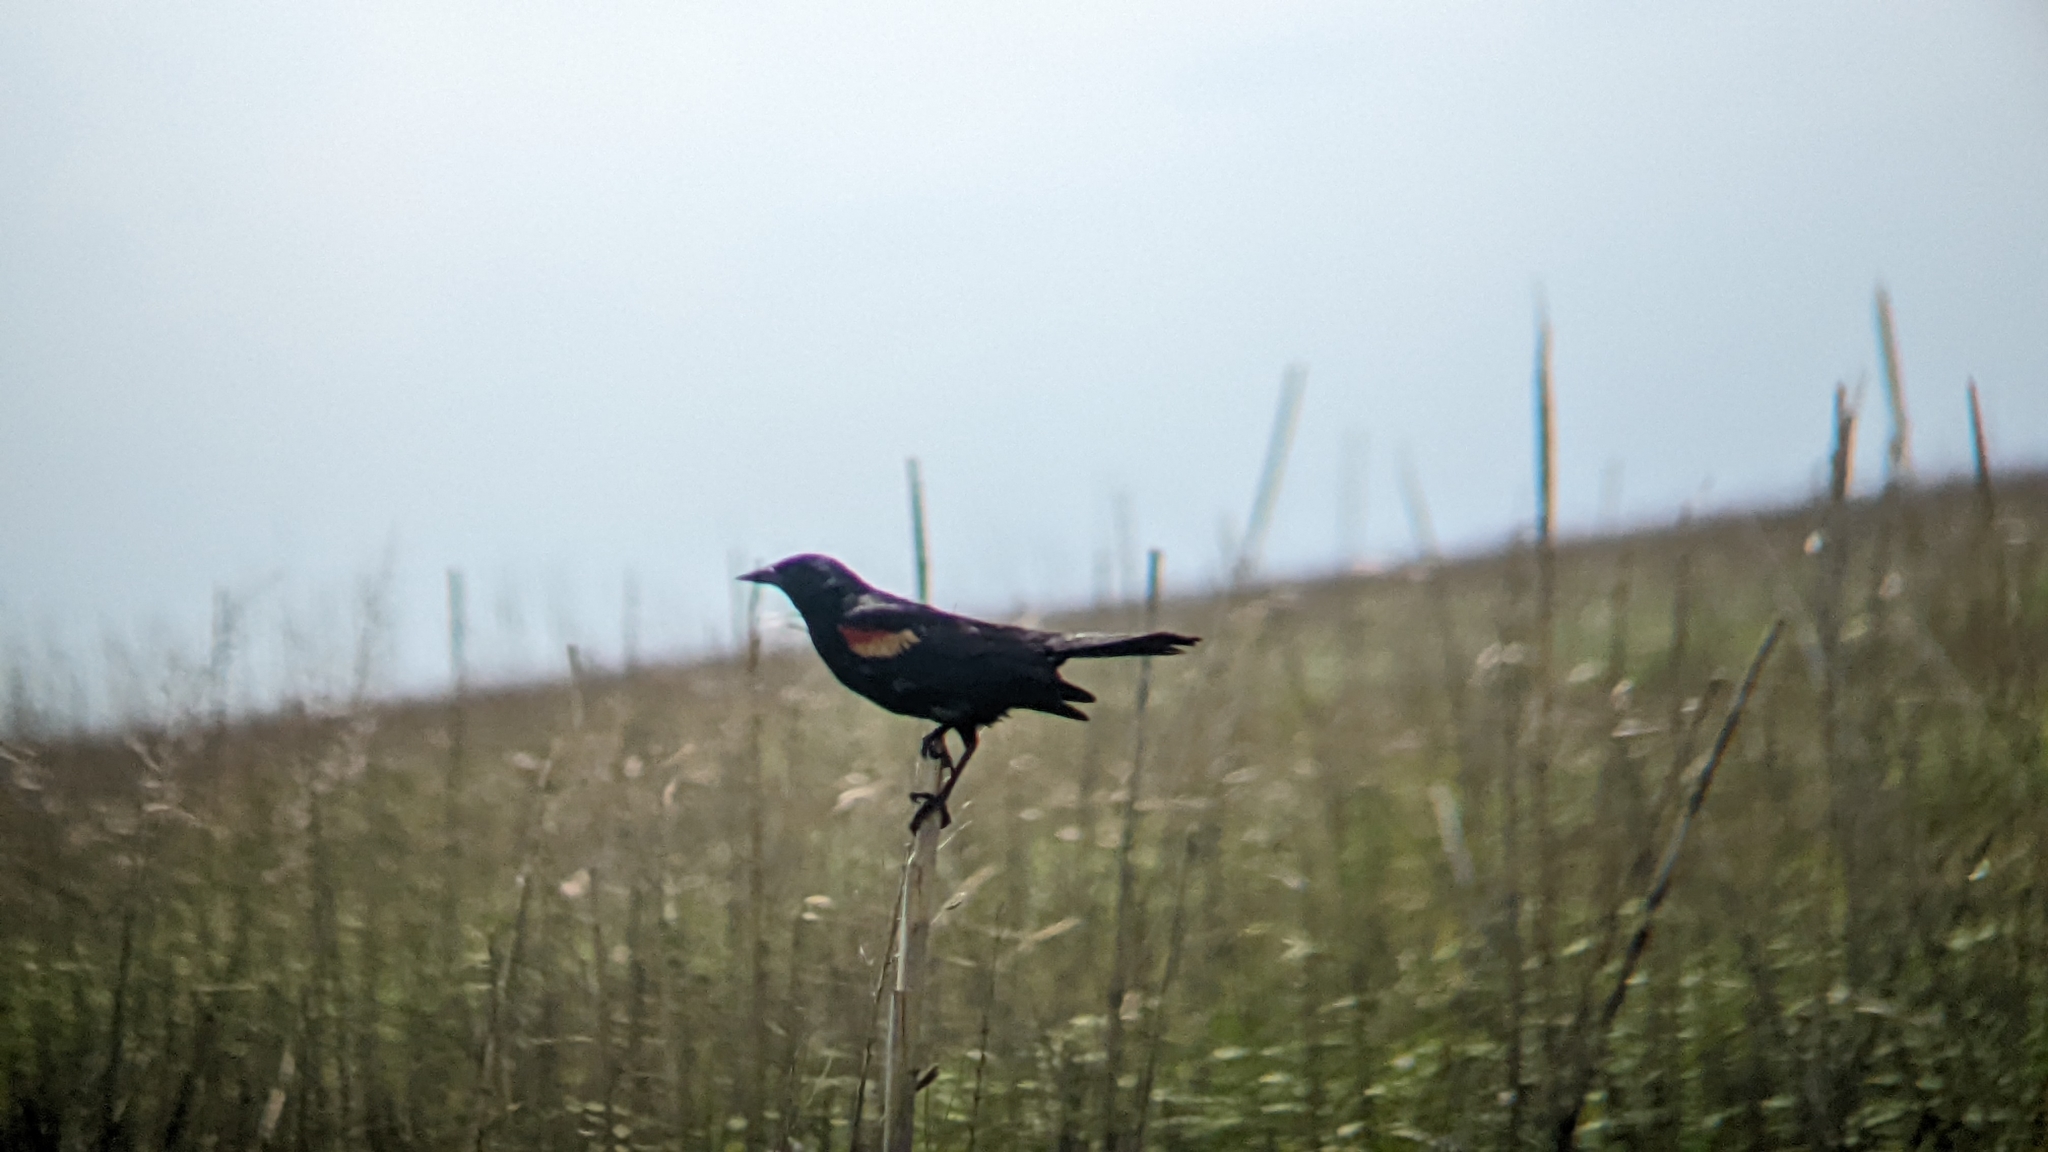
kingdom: Animalia
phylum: Chordata
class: Aves
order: Passeriformes
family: Icteridae
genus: Agelaius
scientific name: Agelaius phoeniceus
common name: Red-winged blackbird
